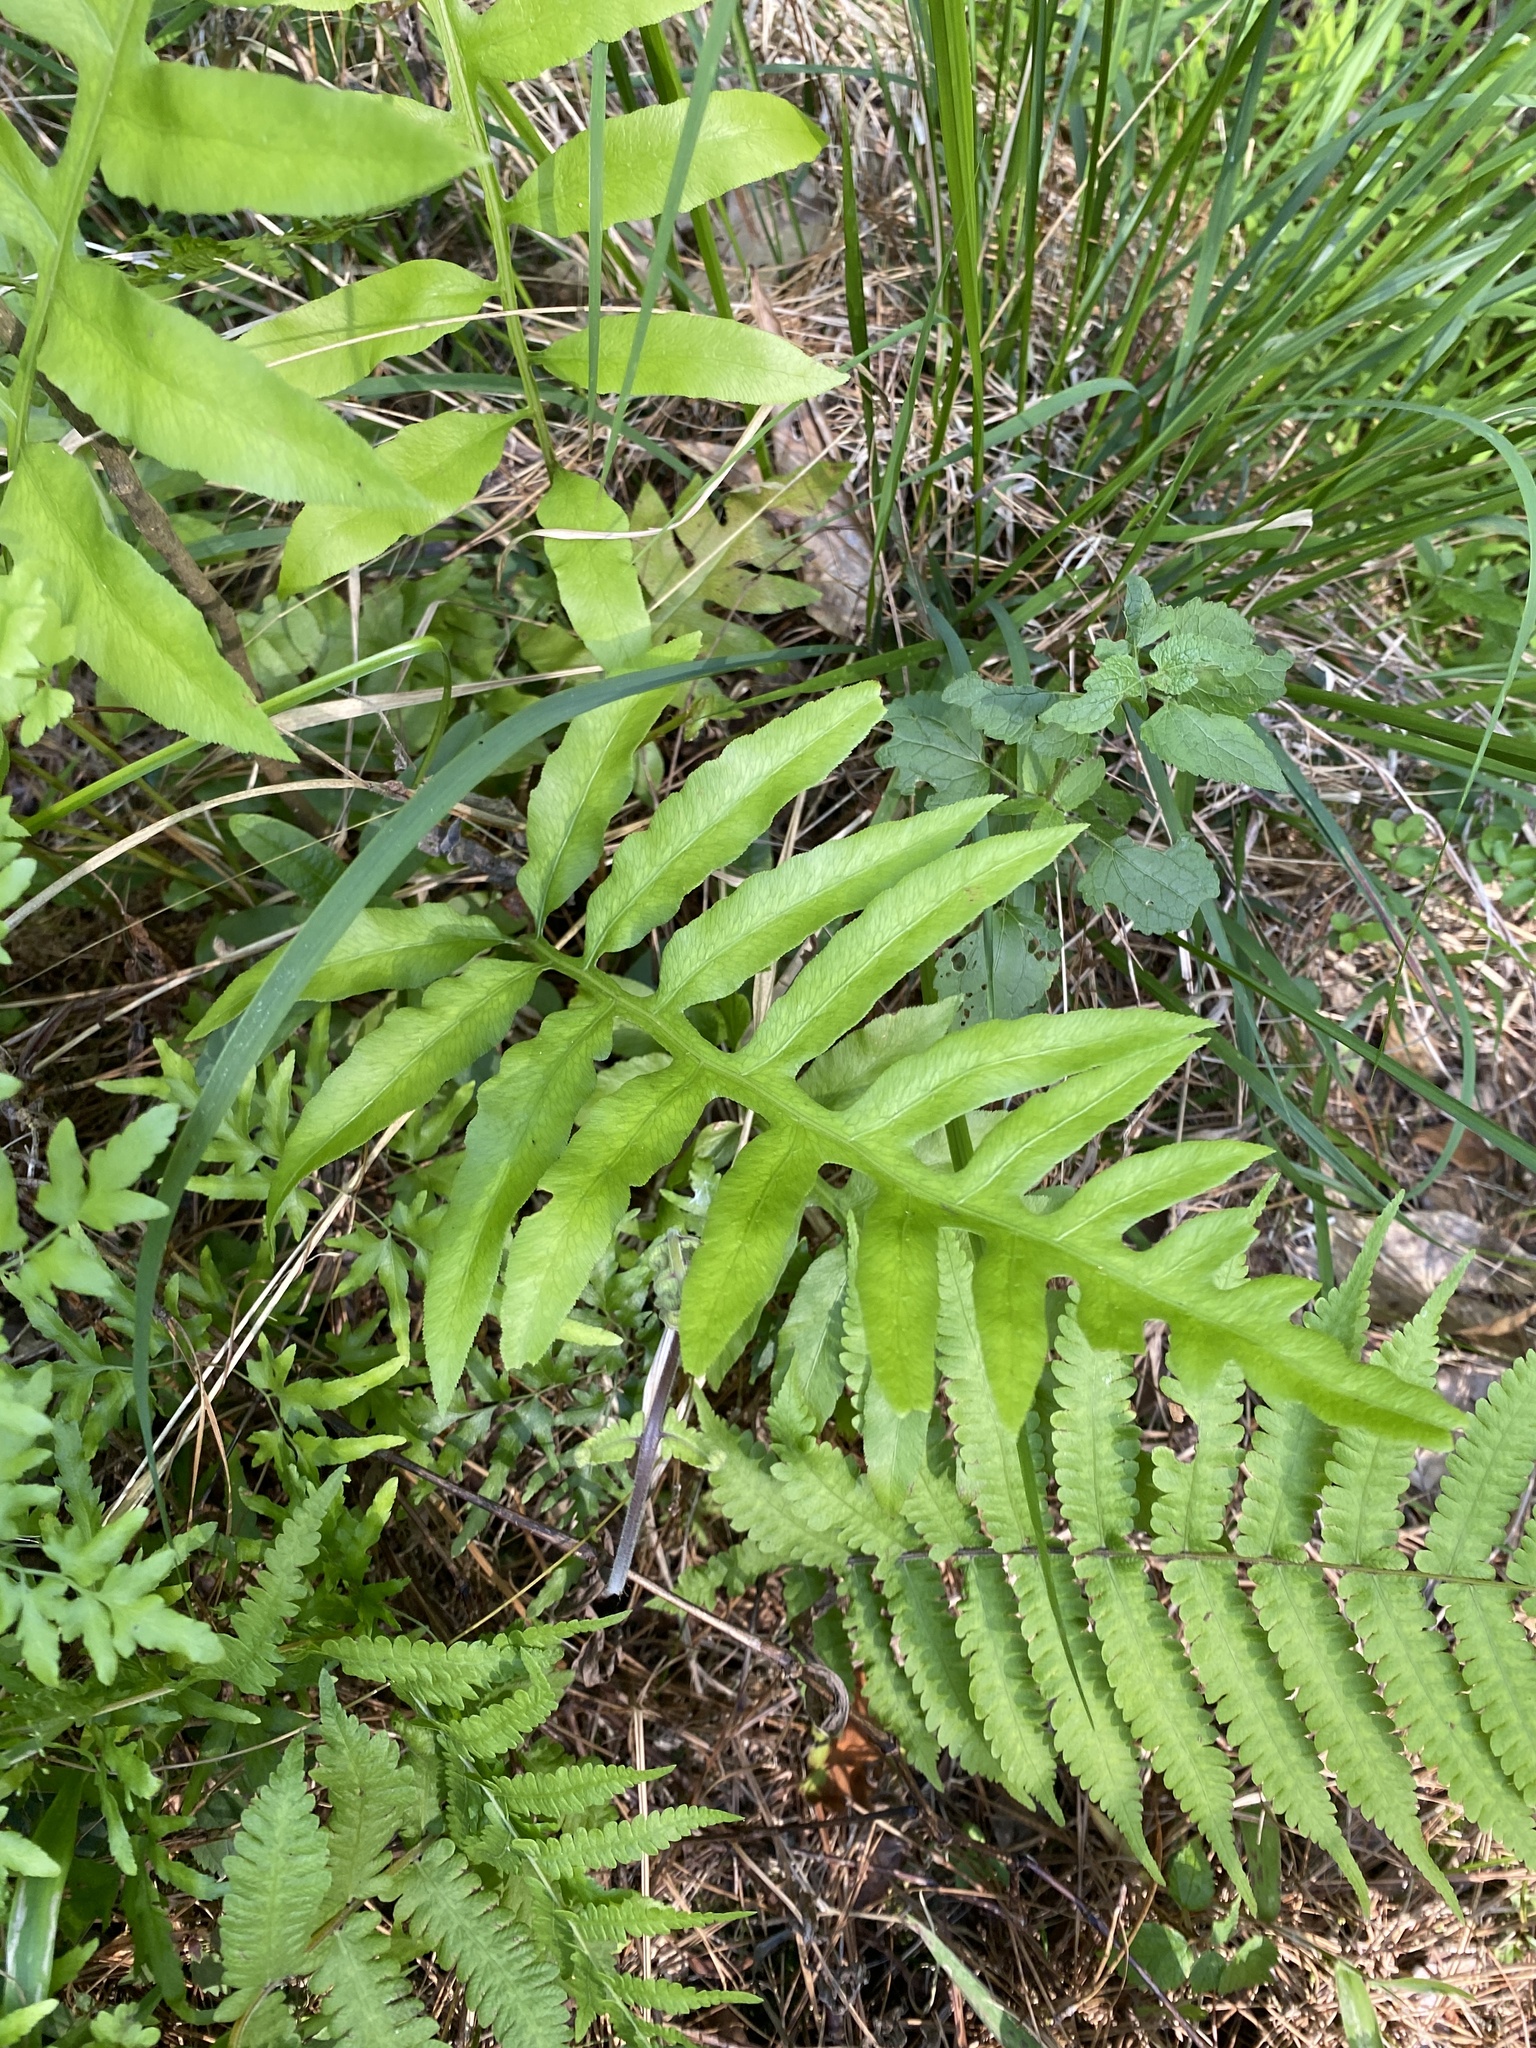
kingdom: Plantae
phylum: Tracheophyta
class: Polypodiopsida
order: Polypodiales
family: Blechnaceae
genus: Lorinseria
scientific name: Lorinseria areolata
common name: Dwarf chain fern
